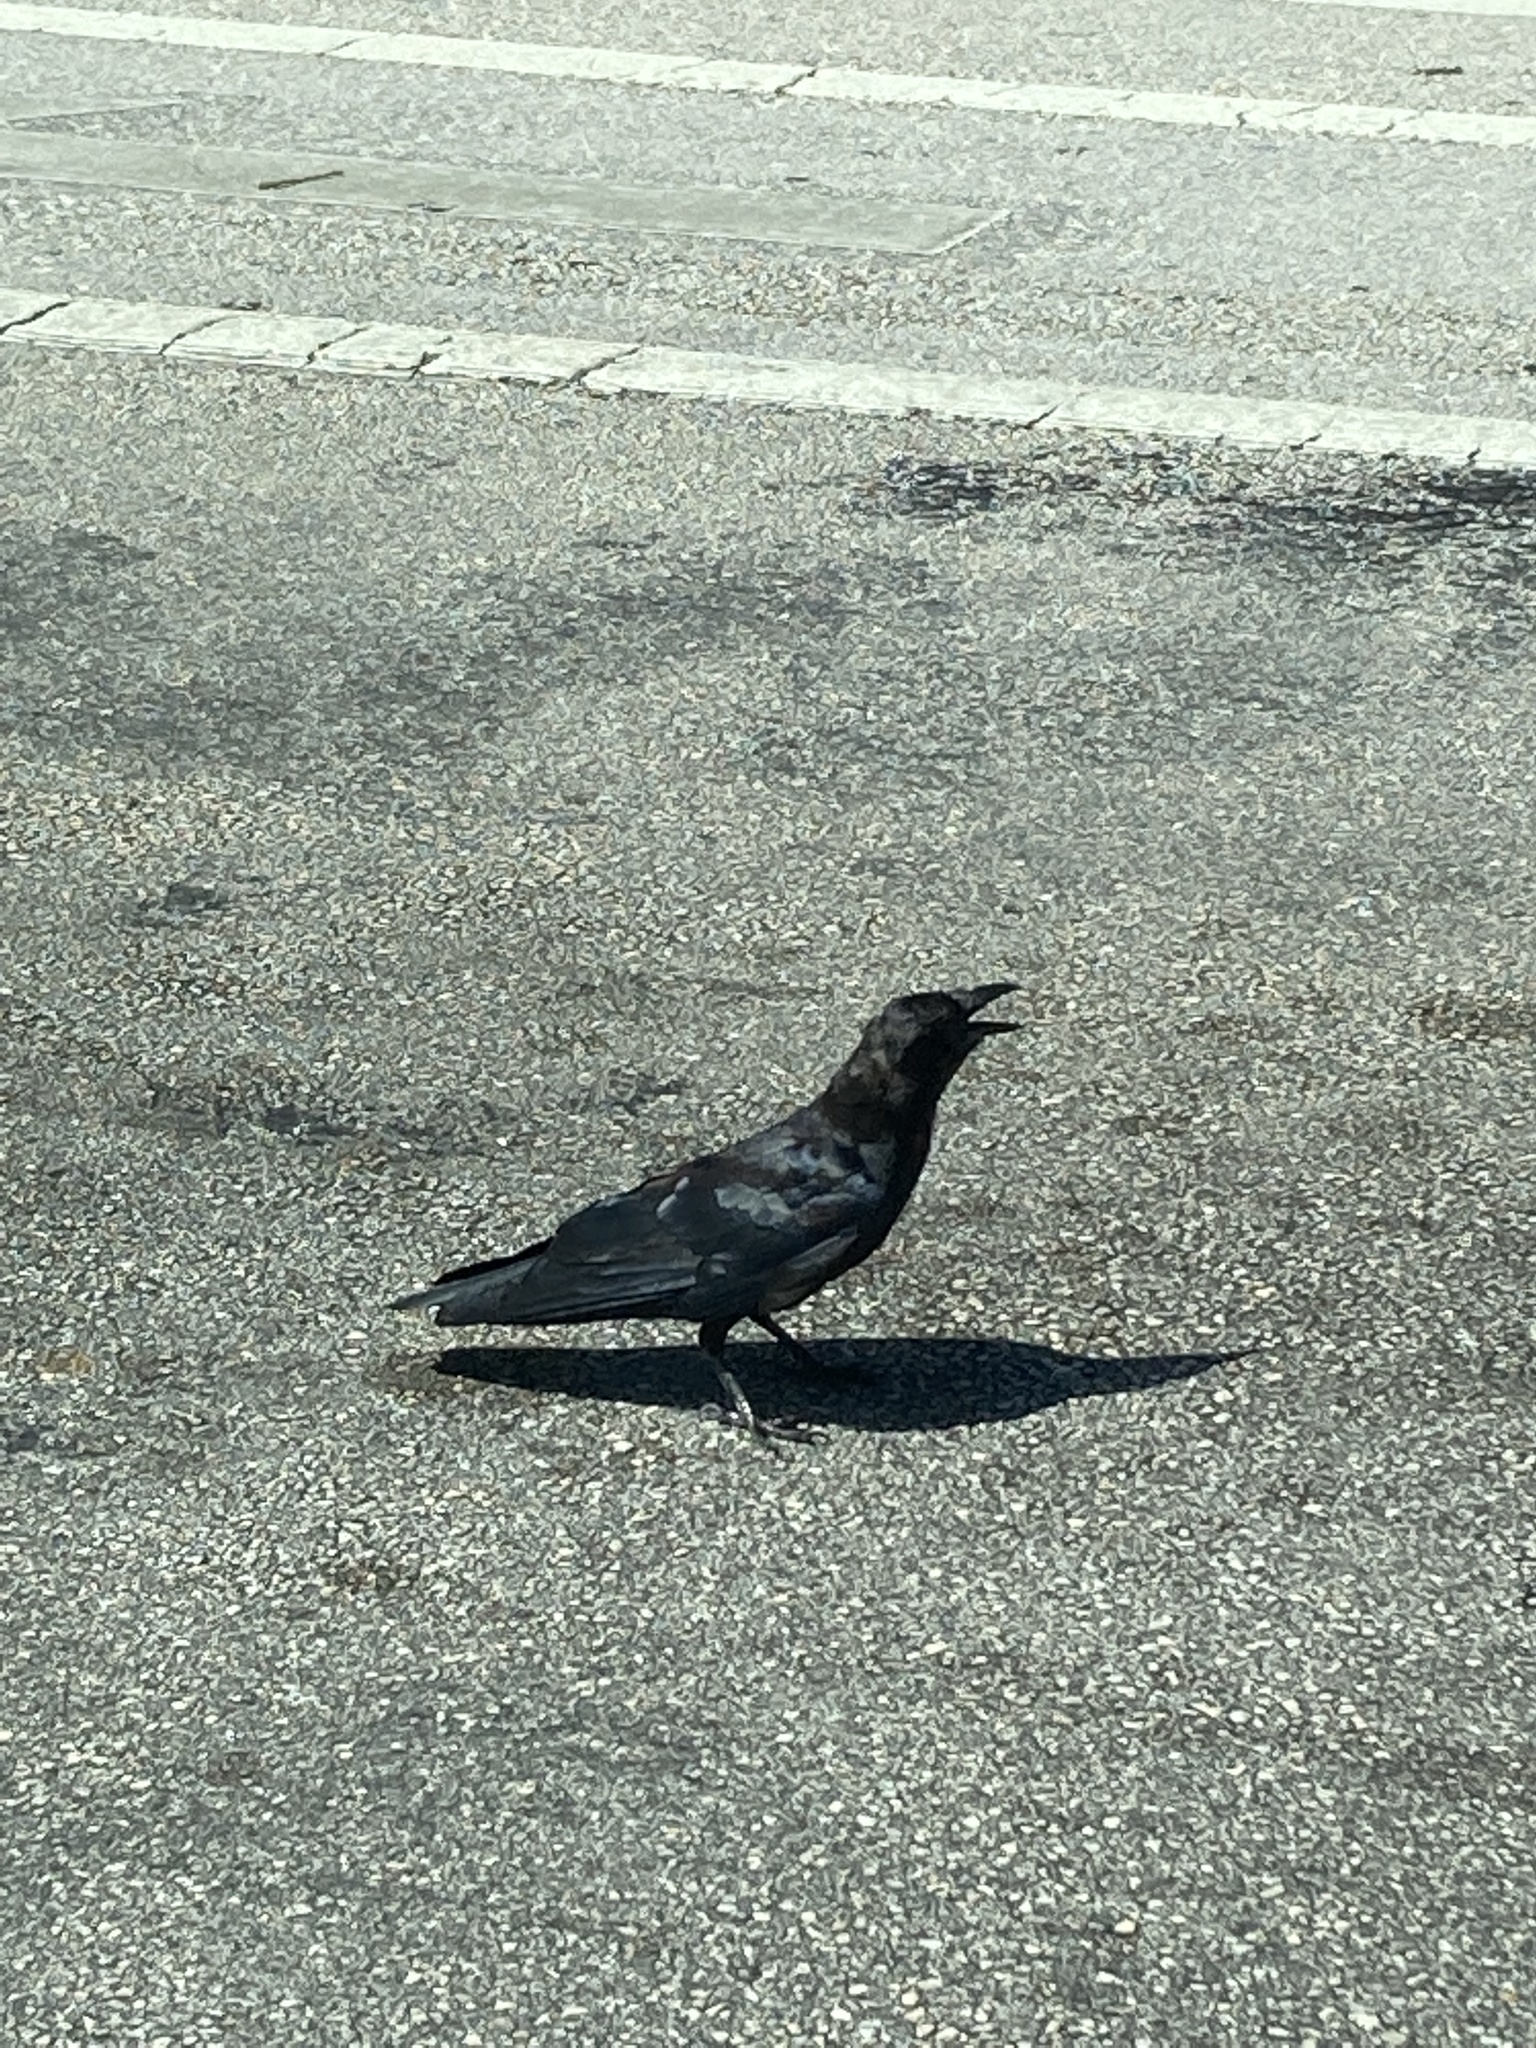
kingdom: Animalia
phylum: Chordata
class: Aves
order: Passeriformes
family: Corvidae
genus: Corvus
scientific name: Corvus ossifragus
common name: Fish crow
